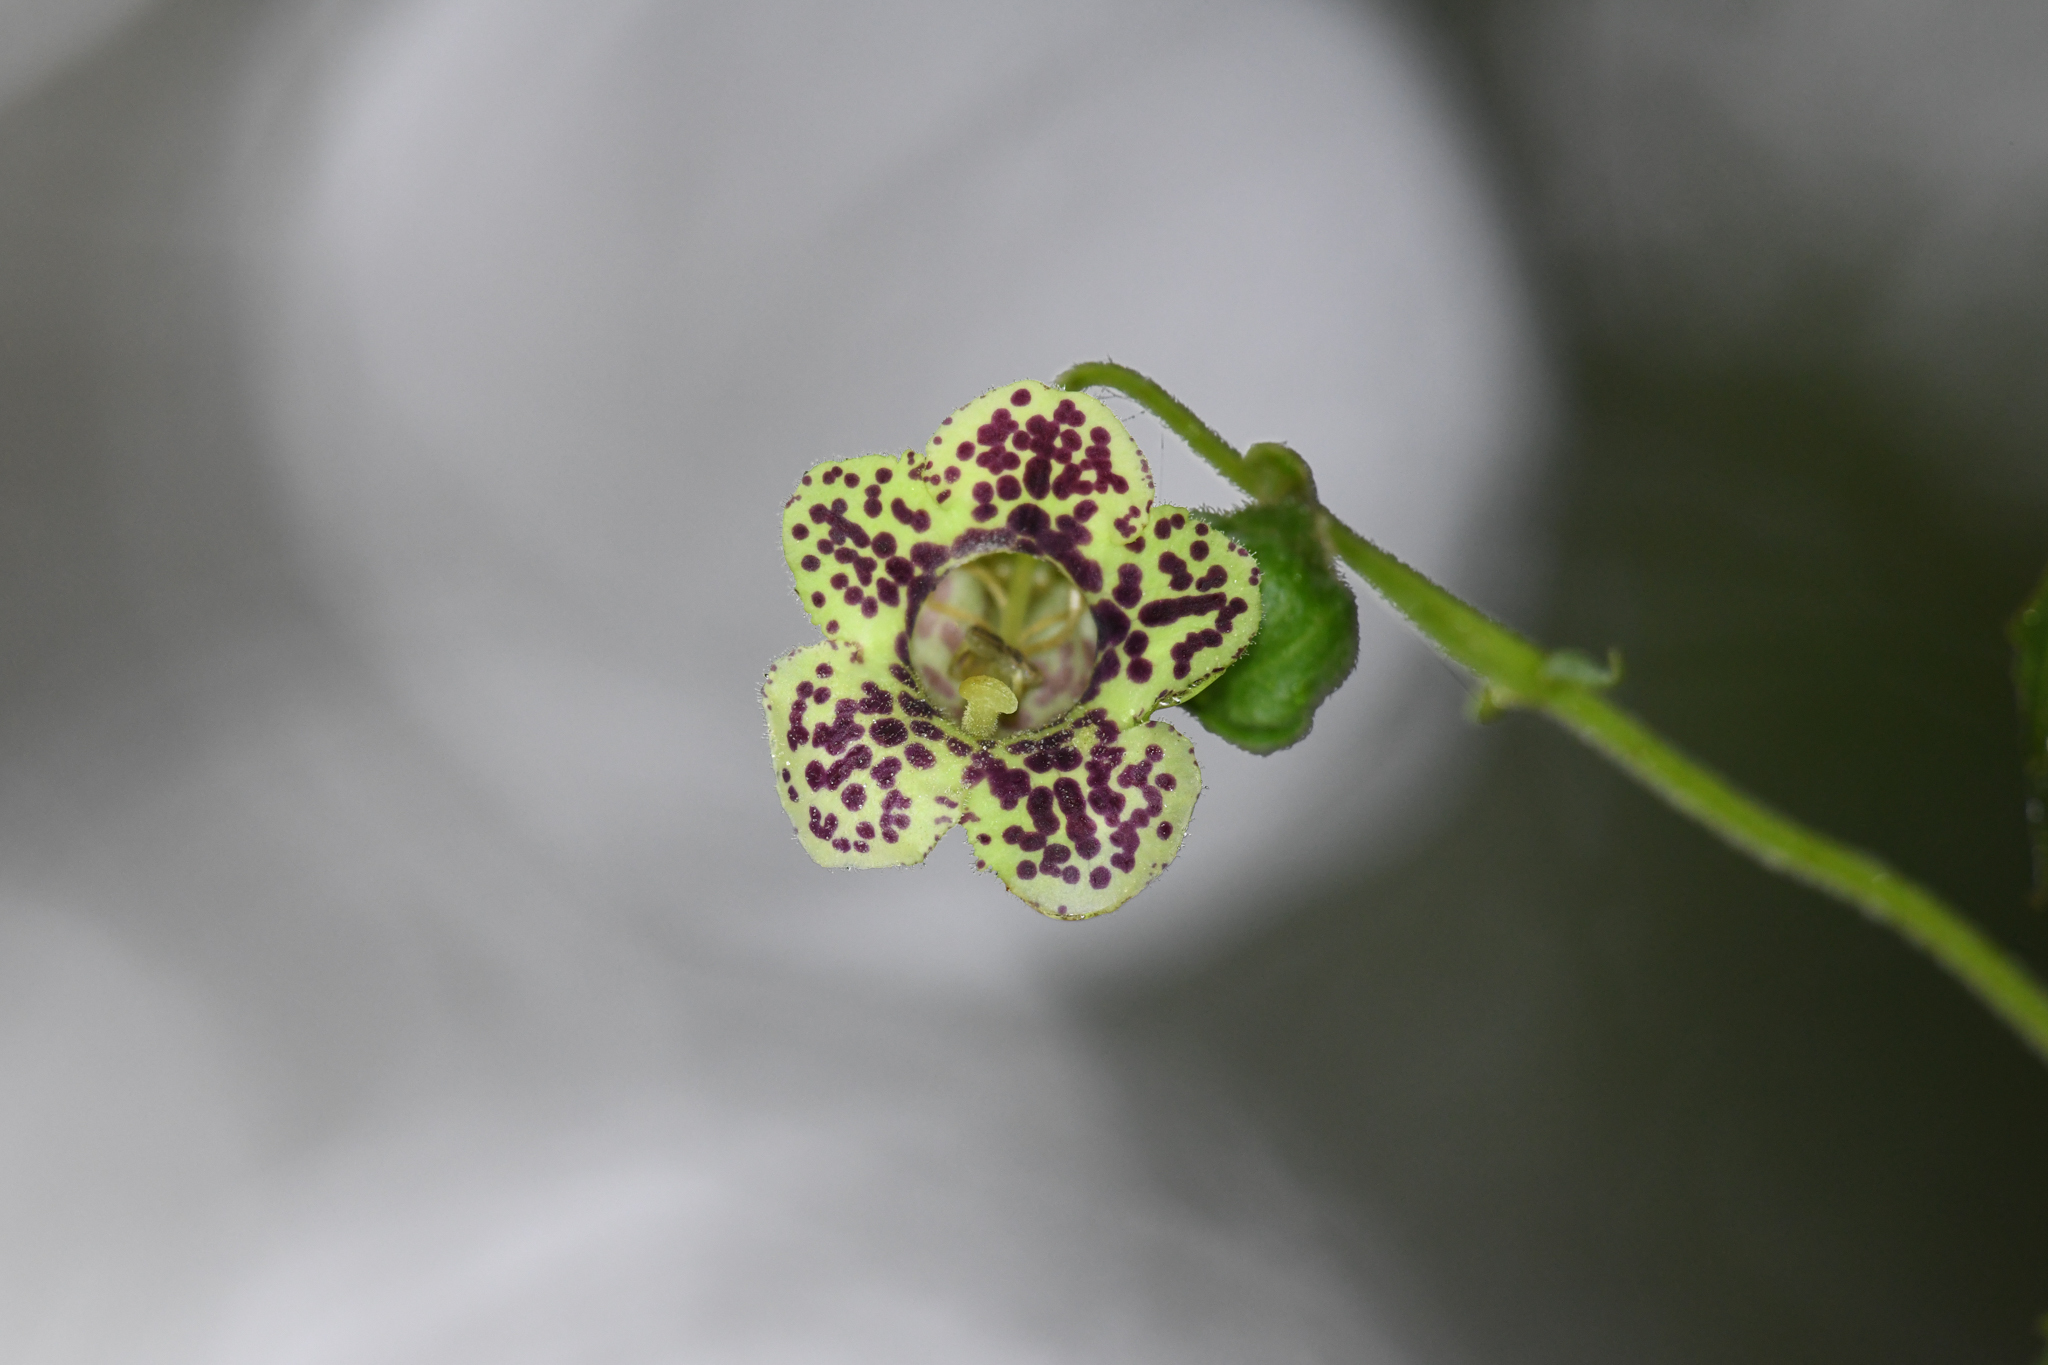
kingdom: Plantae
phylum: Tracheophyta
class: Magnoliopsida
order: Lamiales
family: Gesneriaceae
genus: Kohleria
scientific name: Kohleria tigridia
